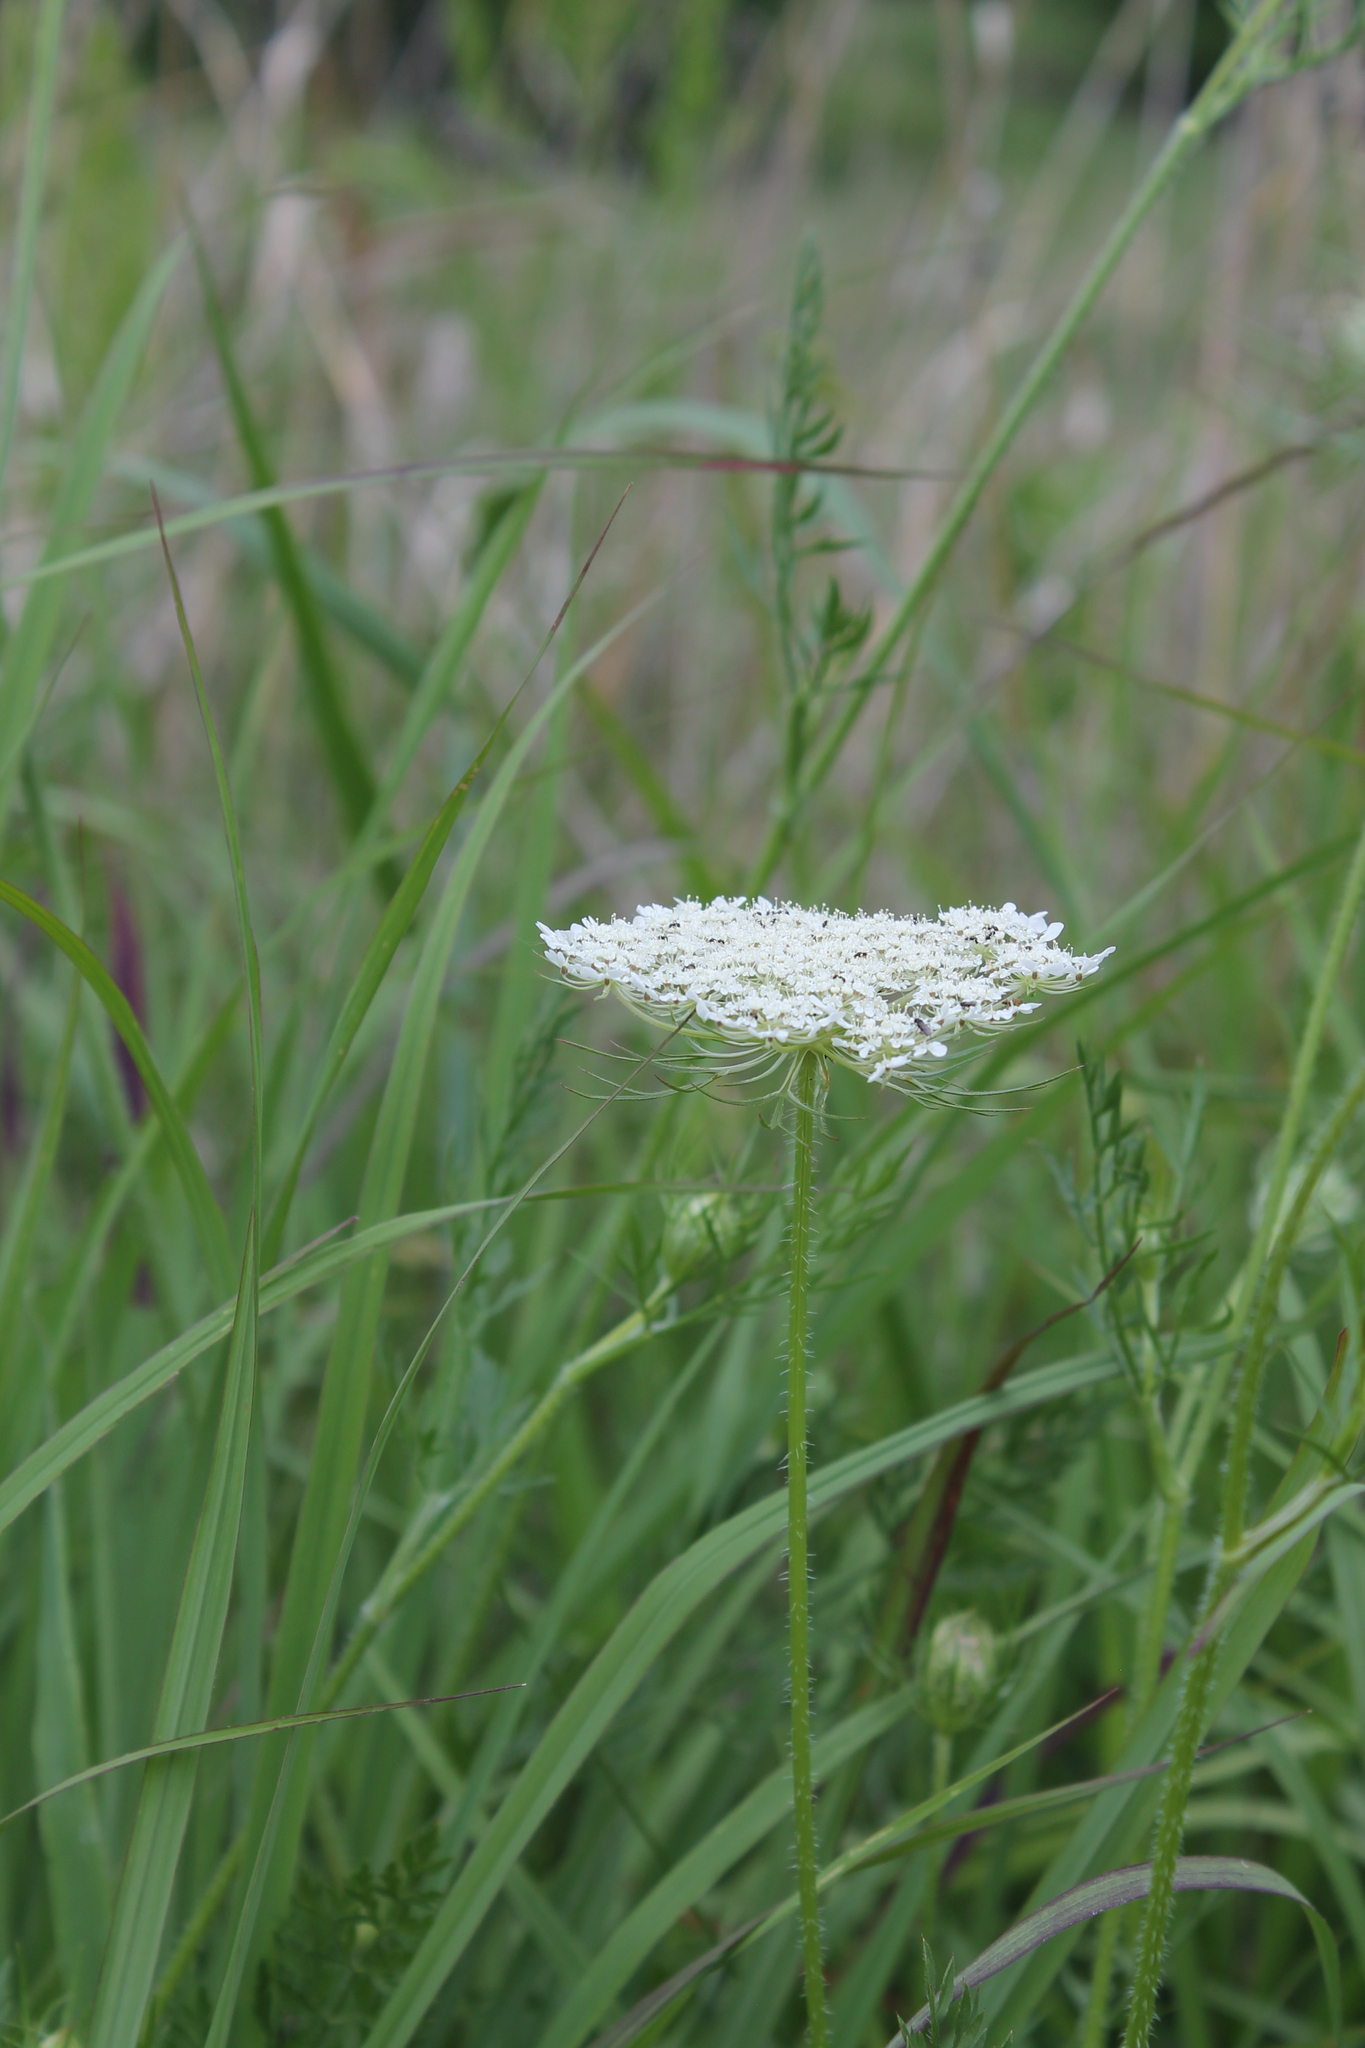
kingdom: Plantae
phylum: Tracheophyta
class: Magnoliopsida
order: Apiales
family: Apiaceae
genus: Daucus
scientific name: Daucus carota
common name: Wild carrot
